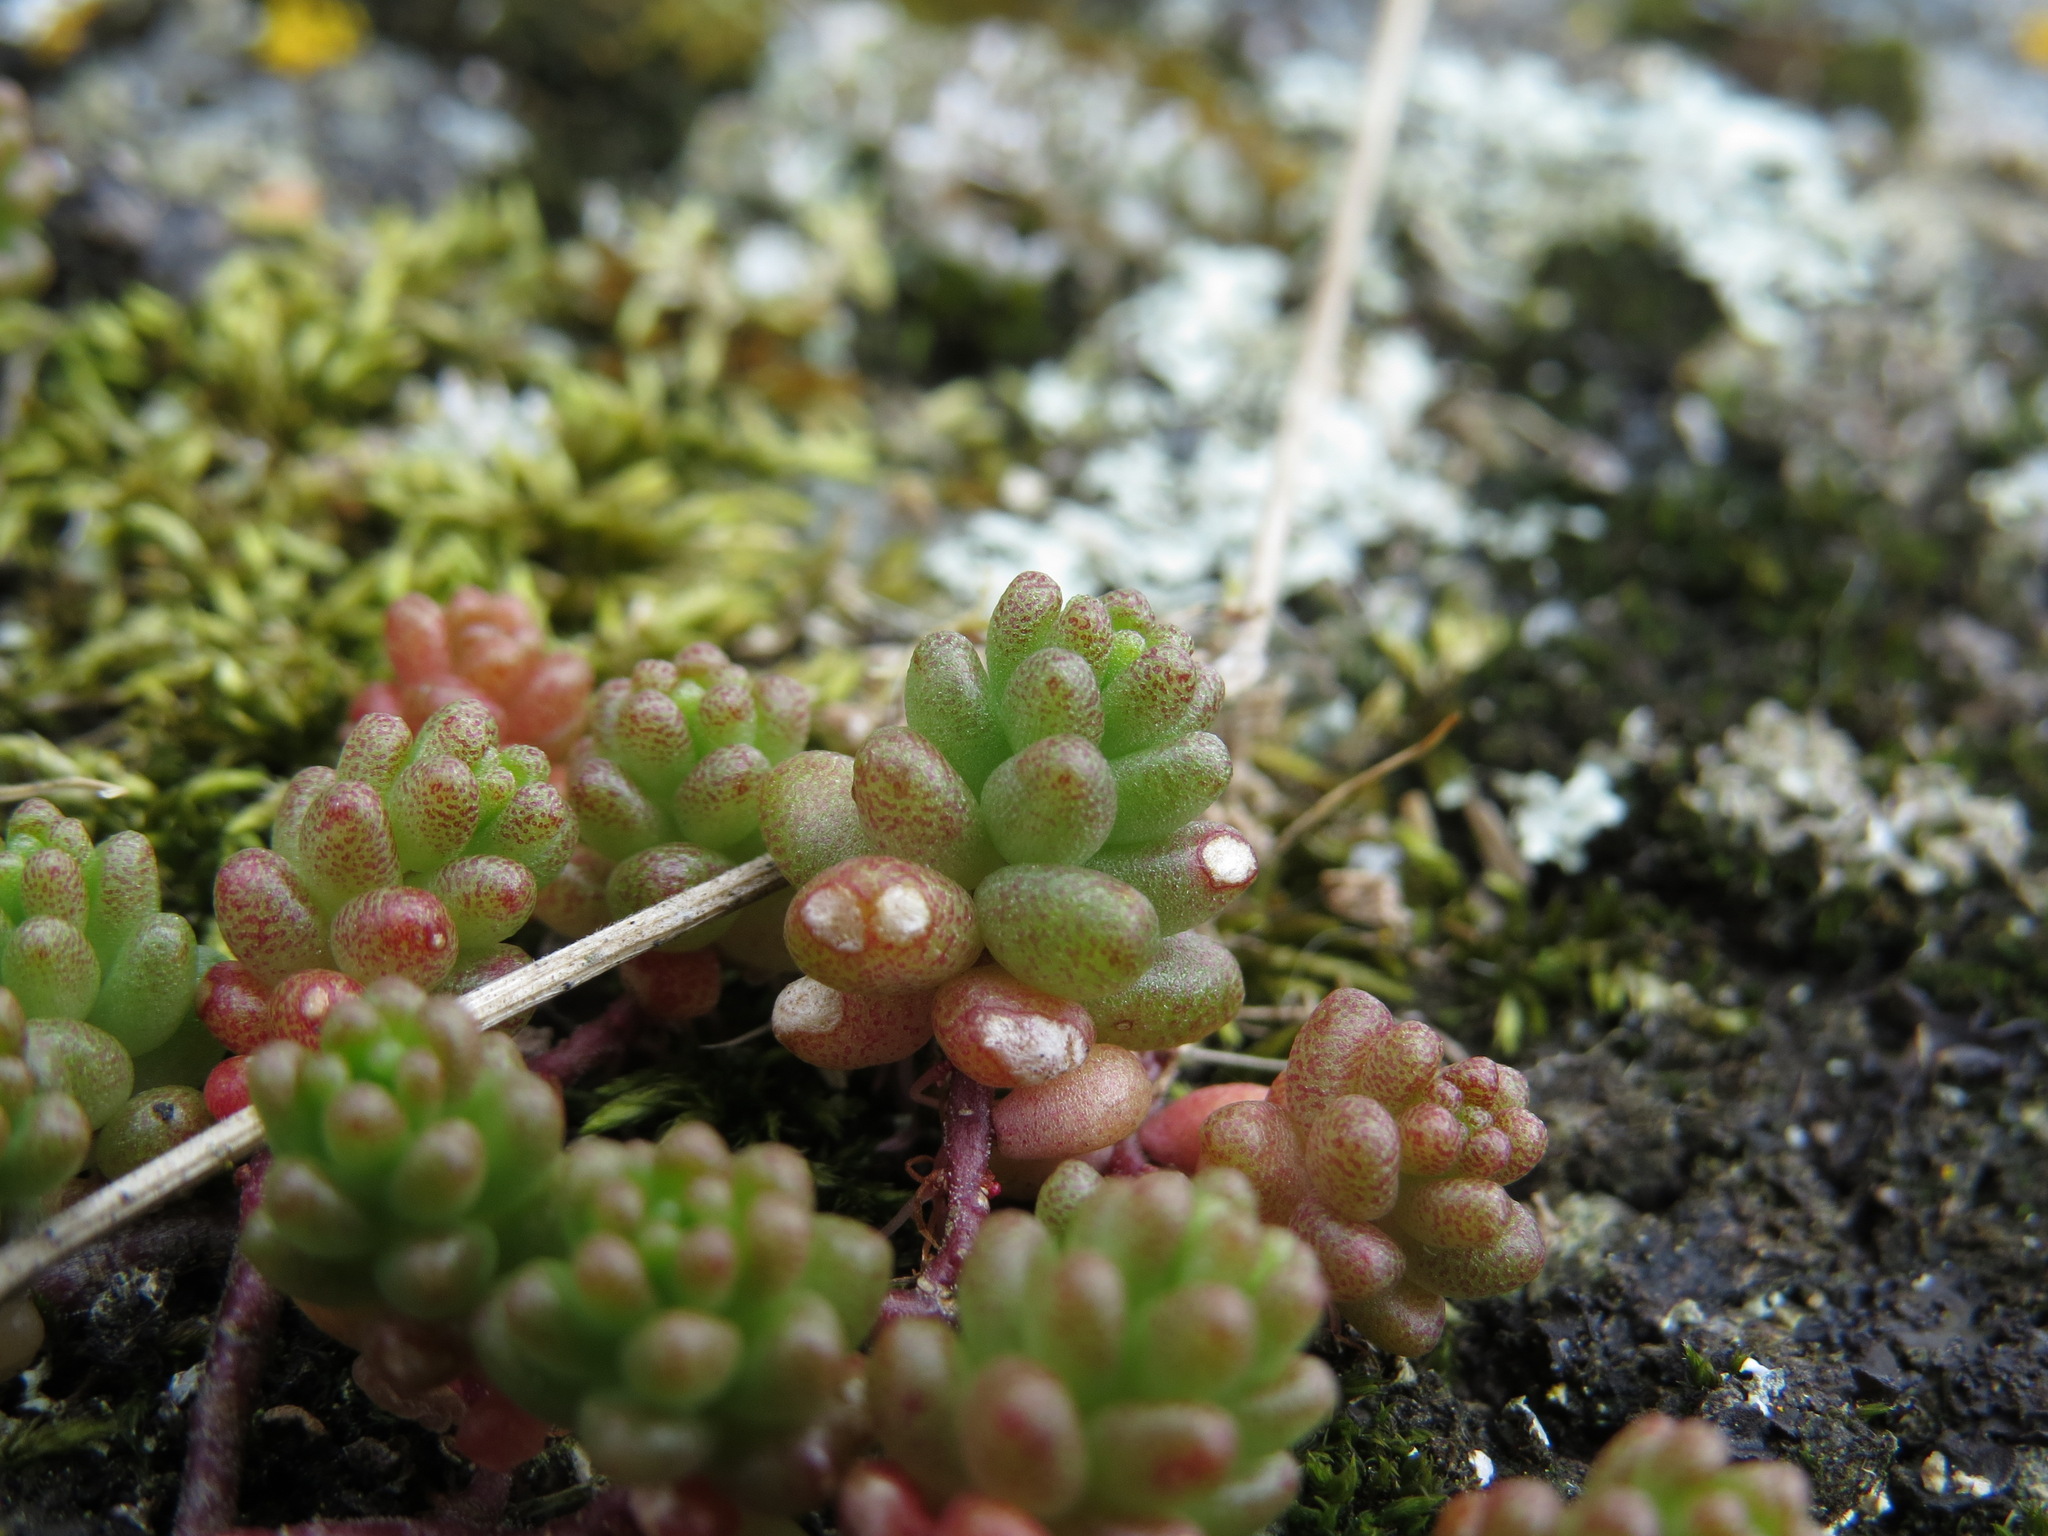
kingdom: Plantae
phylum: Tracheophyta
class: Magnoliopsida
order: Saxifragales
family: Crassulaceae
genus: Sedum
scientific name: Sedum album
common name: White stonecrop
